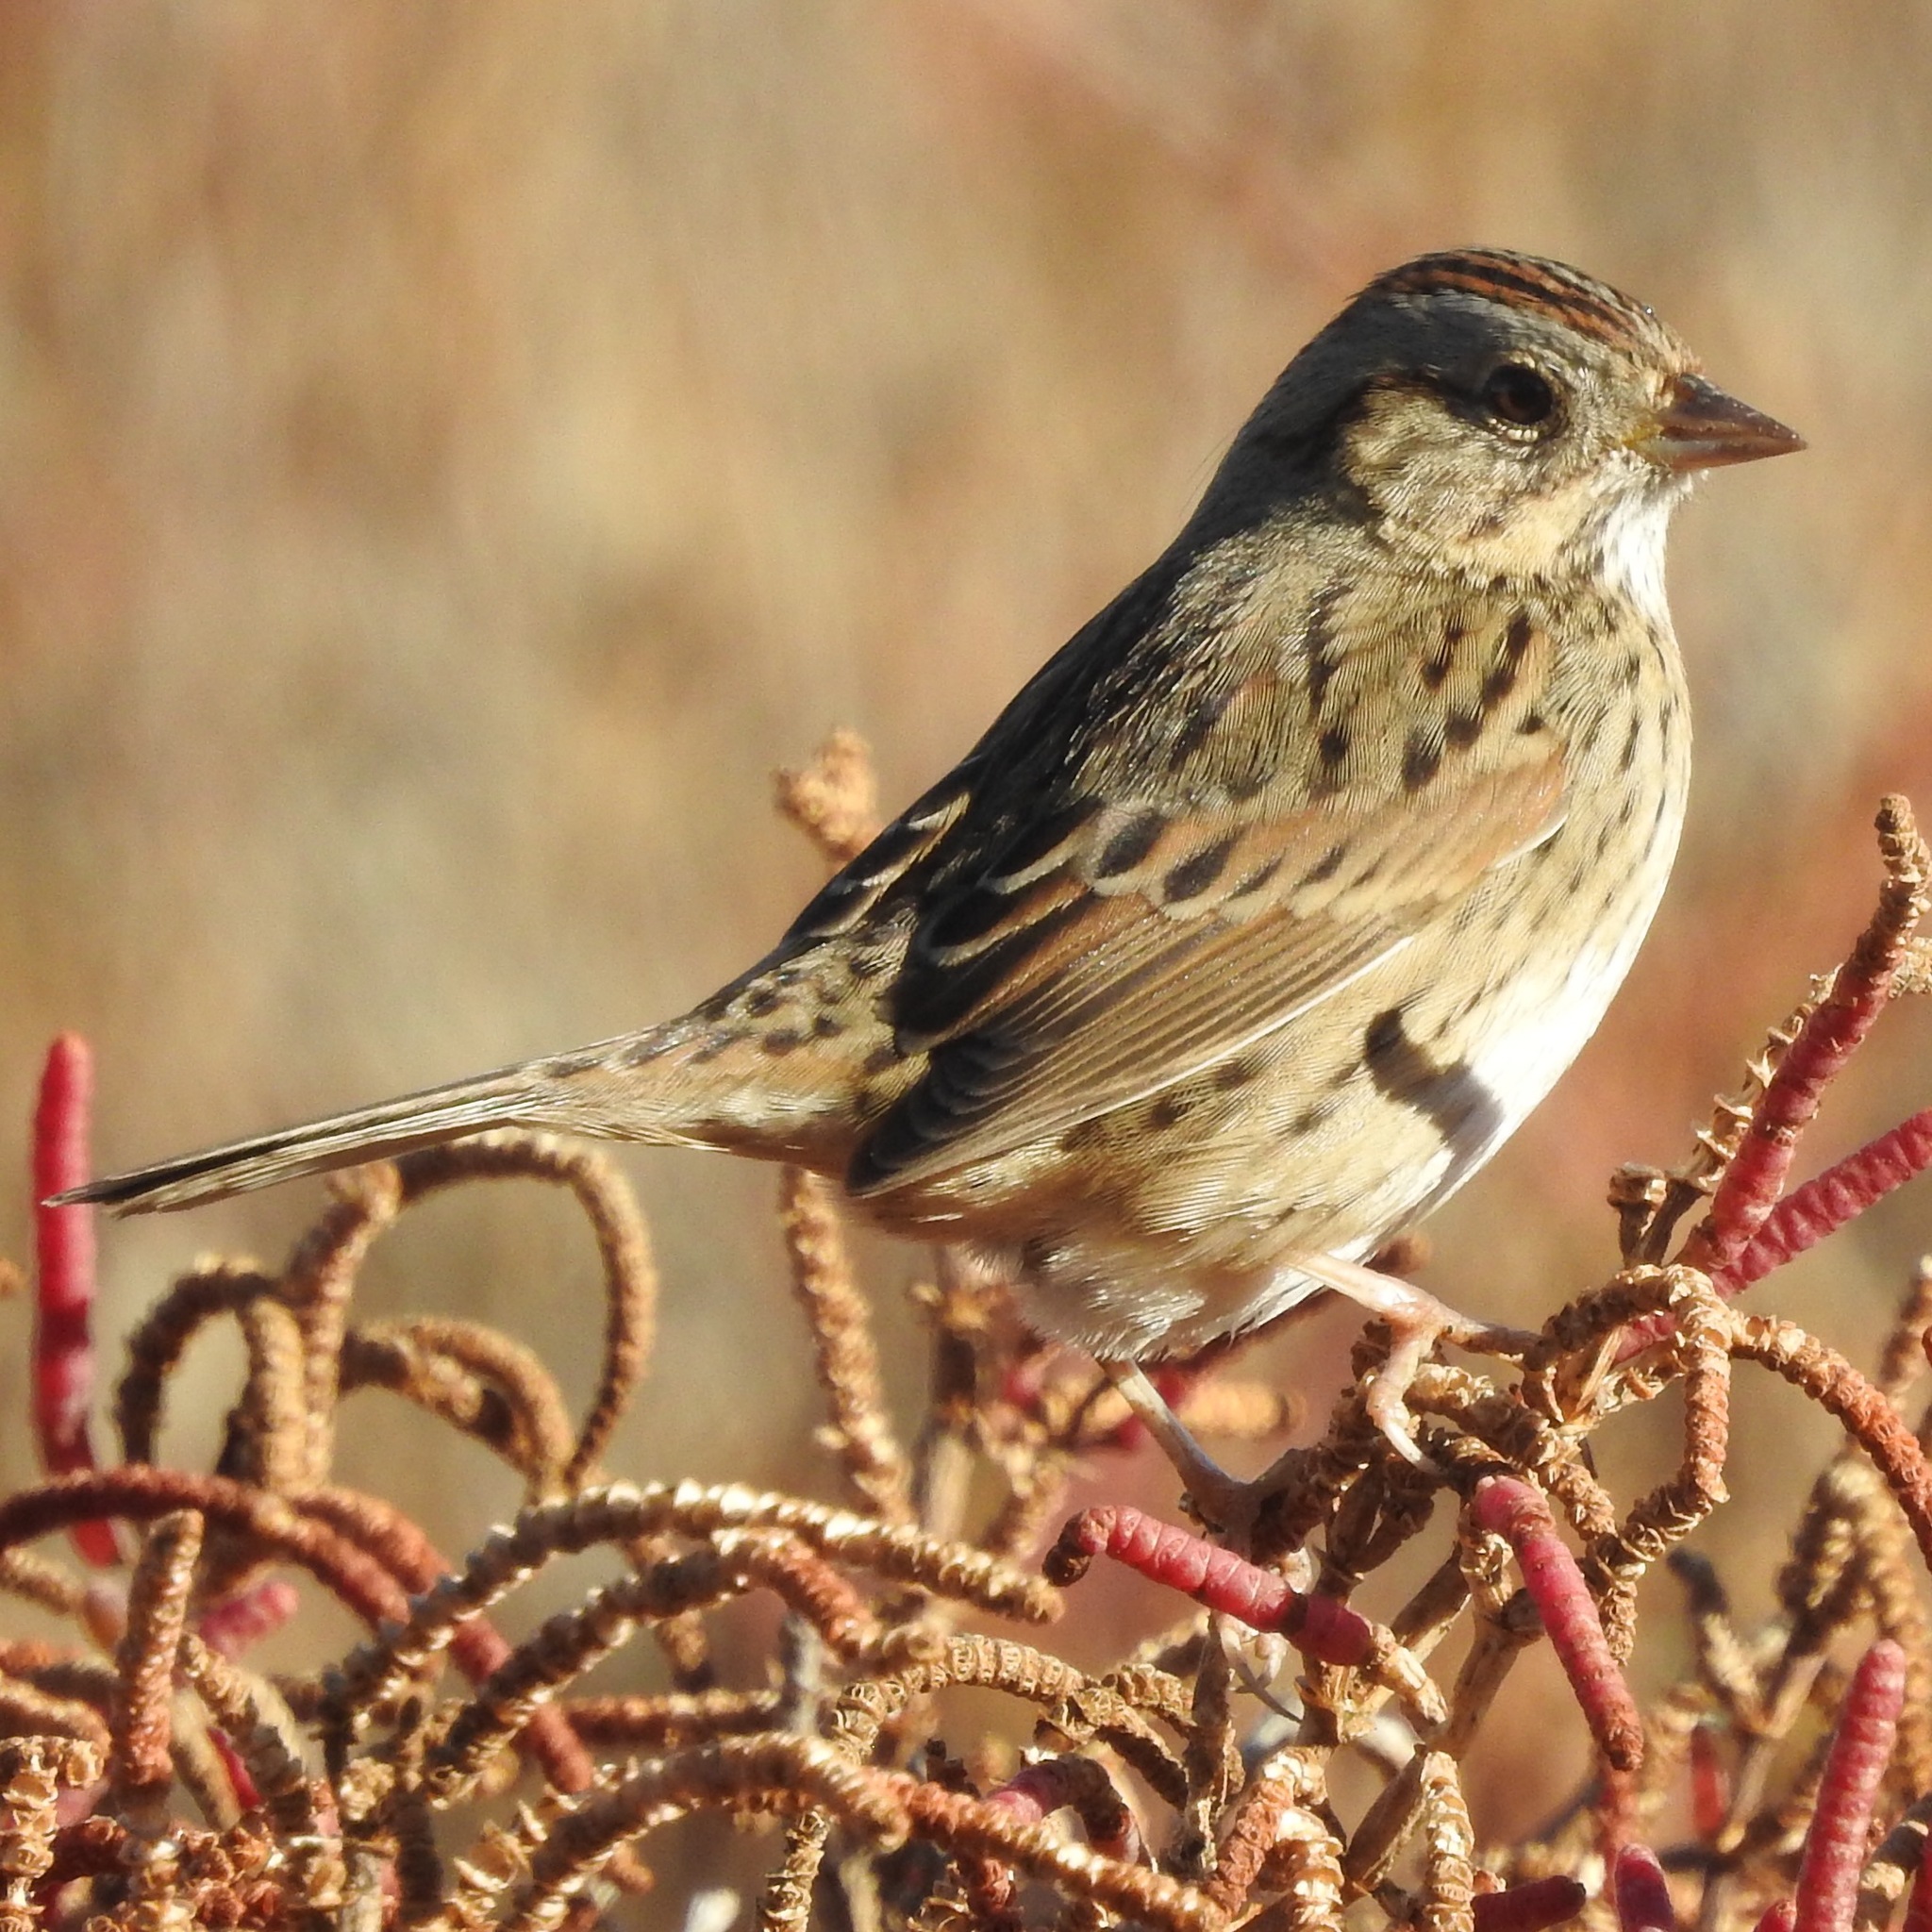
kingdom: Animalia
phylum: Chordata
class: Aves
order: Passeriformes
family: Passerellidae
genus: Melospiza
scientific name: Melospiza lincolnii
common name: Lincoln's sparrow
